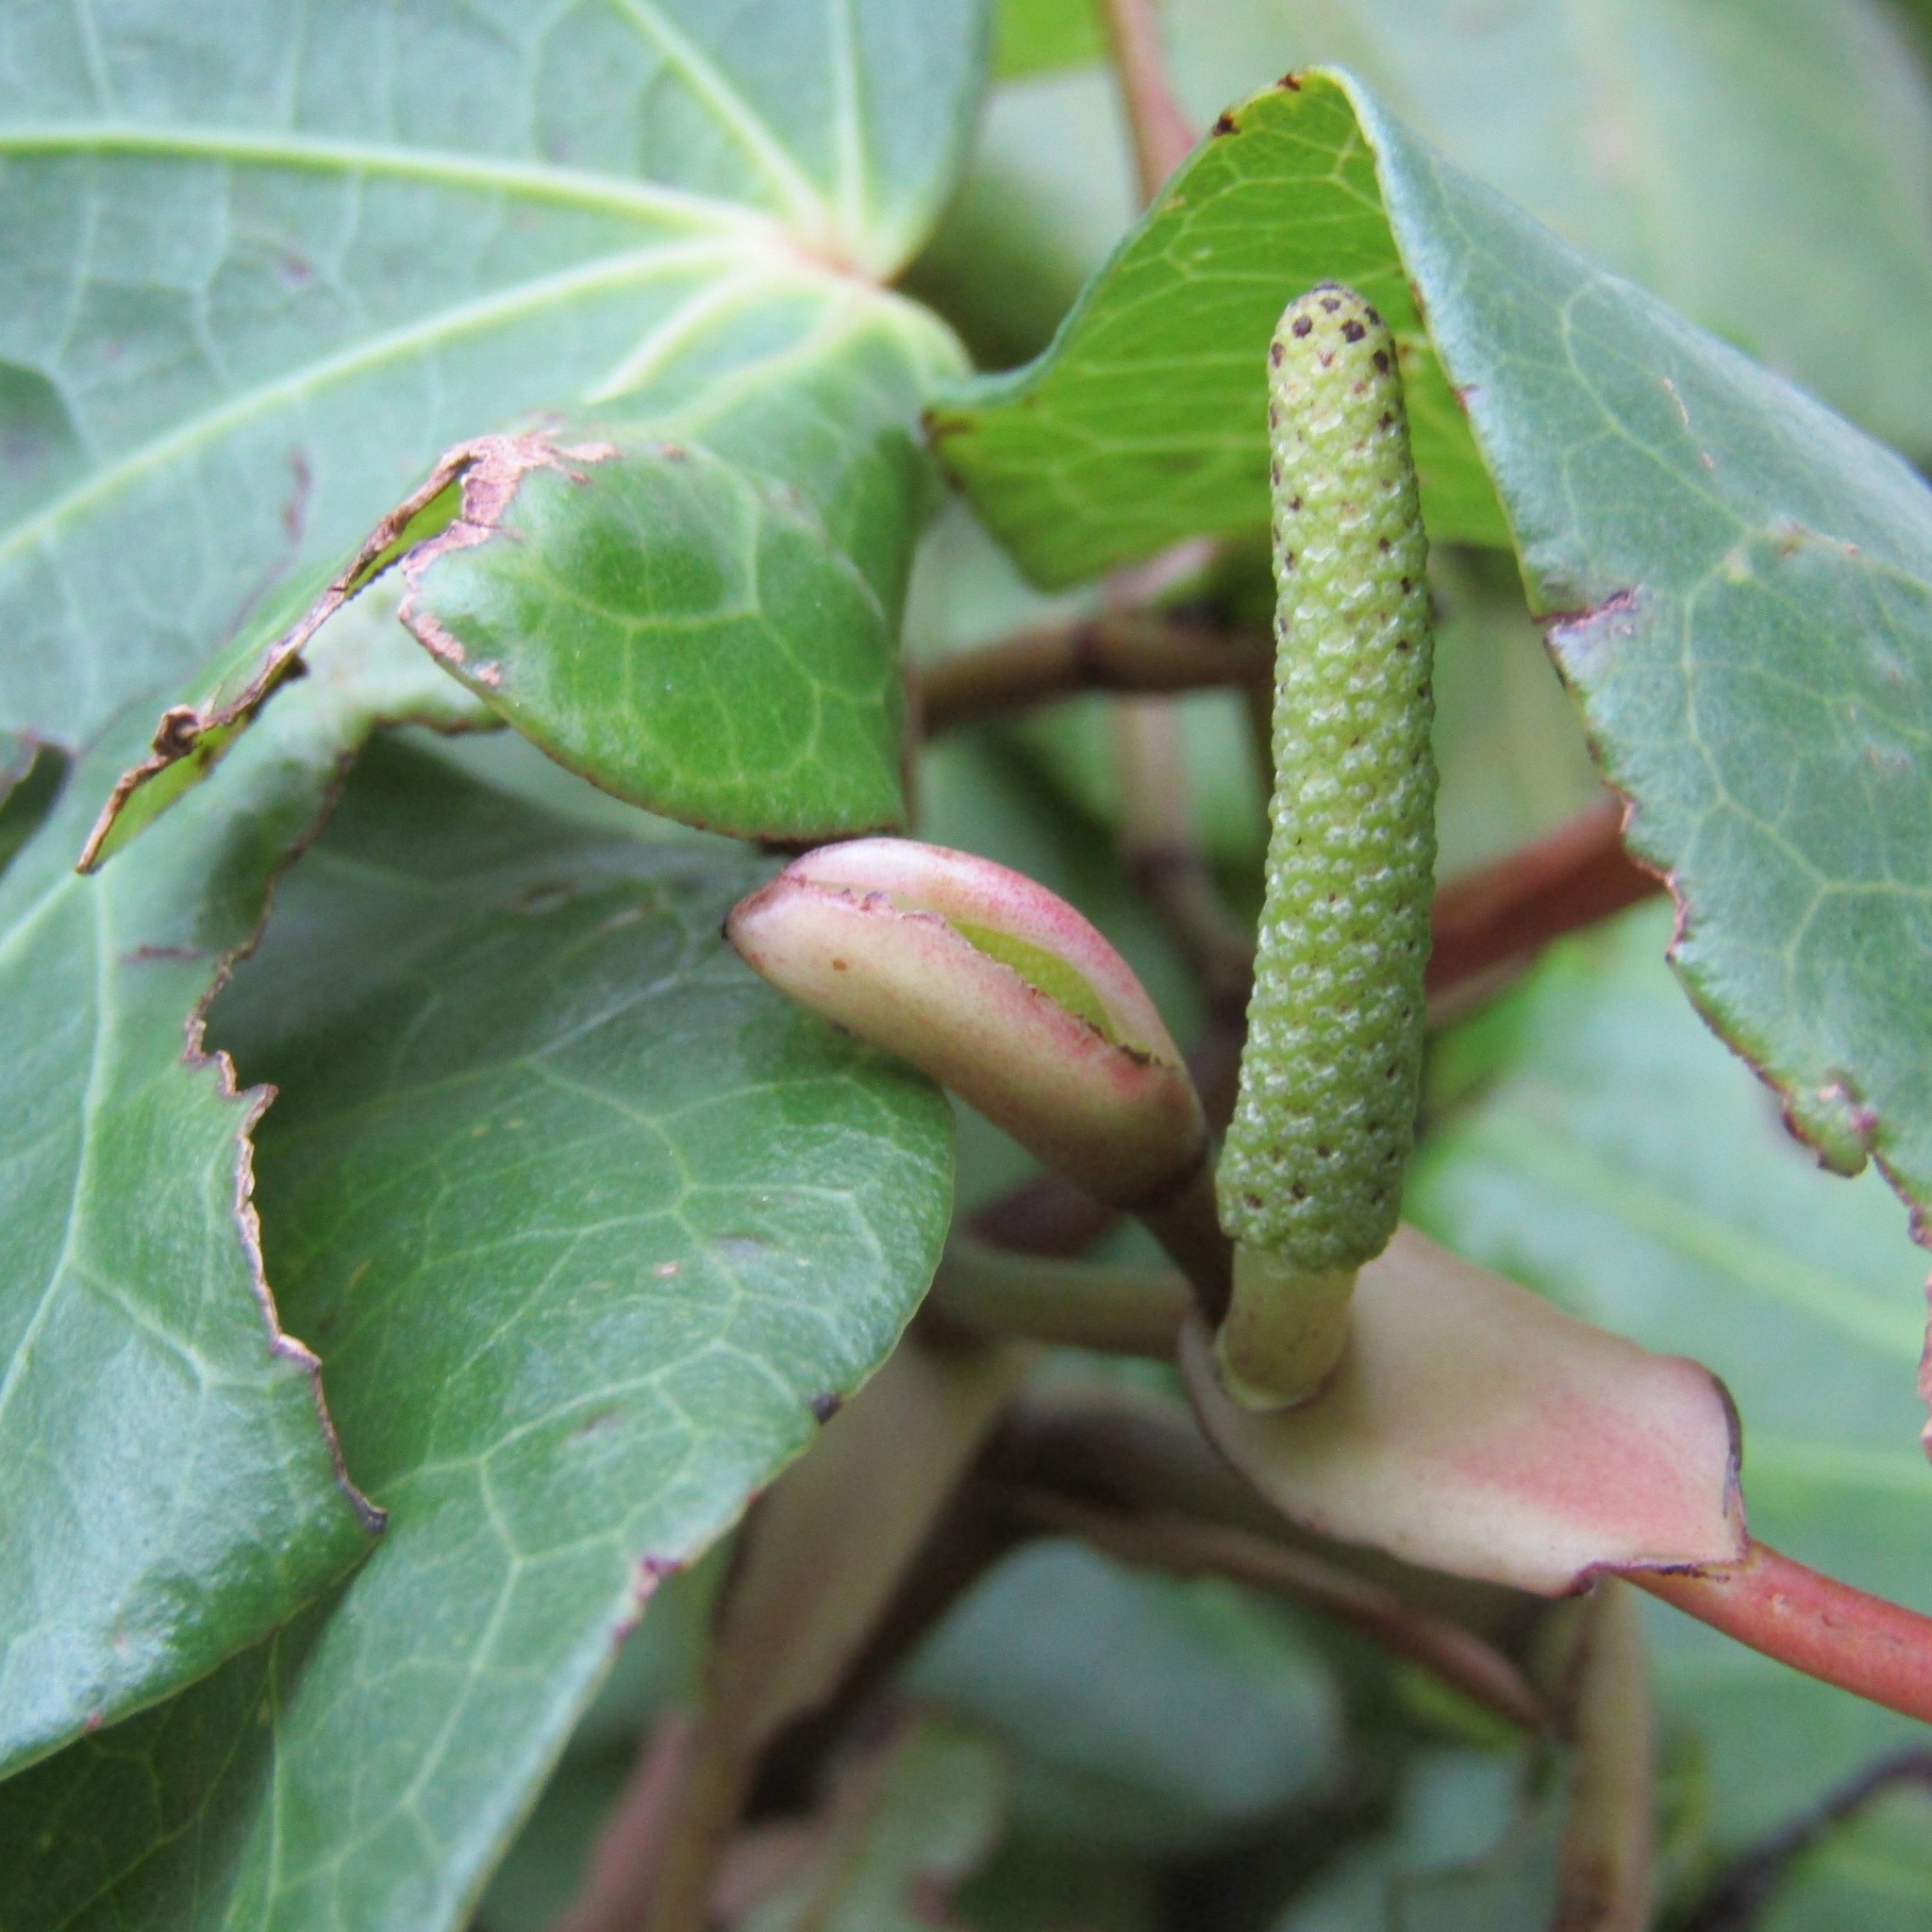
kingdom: Plantae
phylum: Tracheophyta
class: Magnoliopsida
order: Piperales
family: Piperaceae
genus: Macropiper
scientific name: Macropiper excelsum
